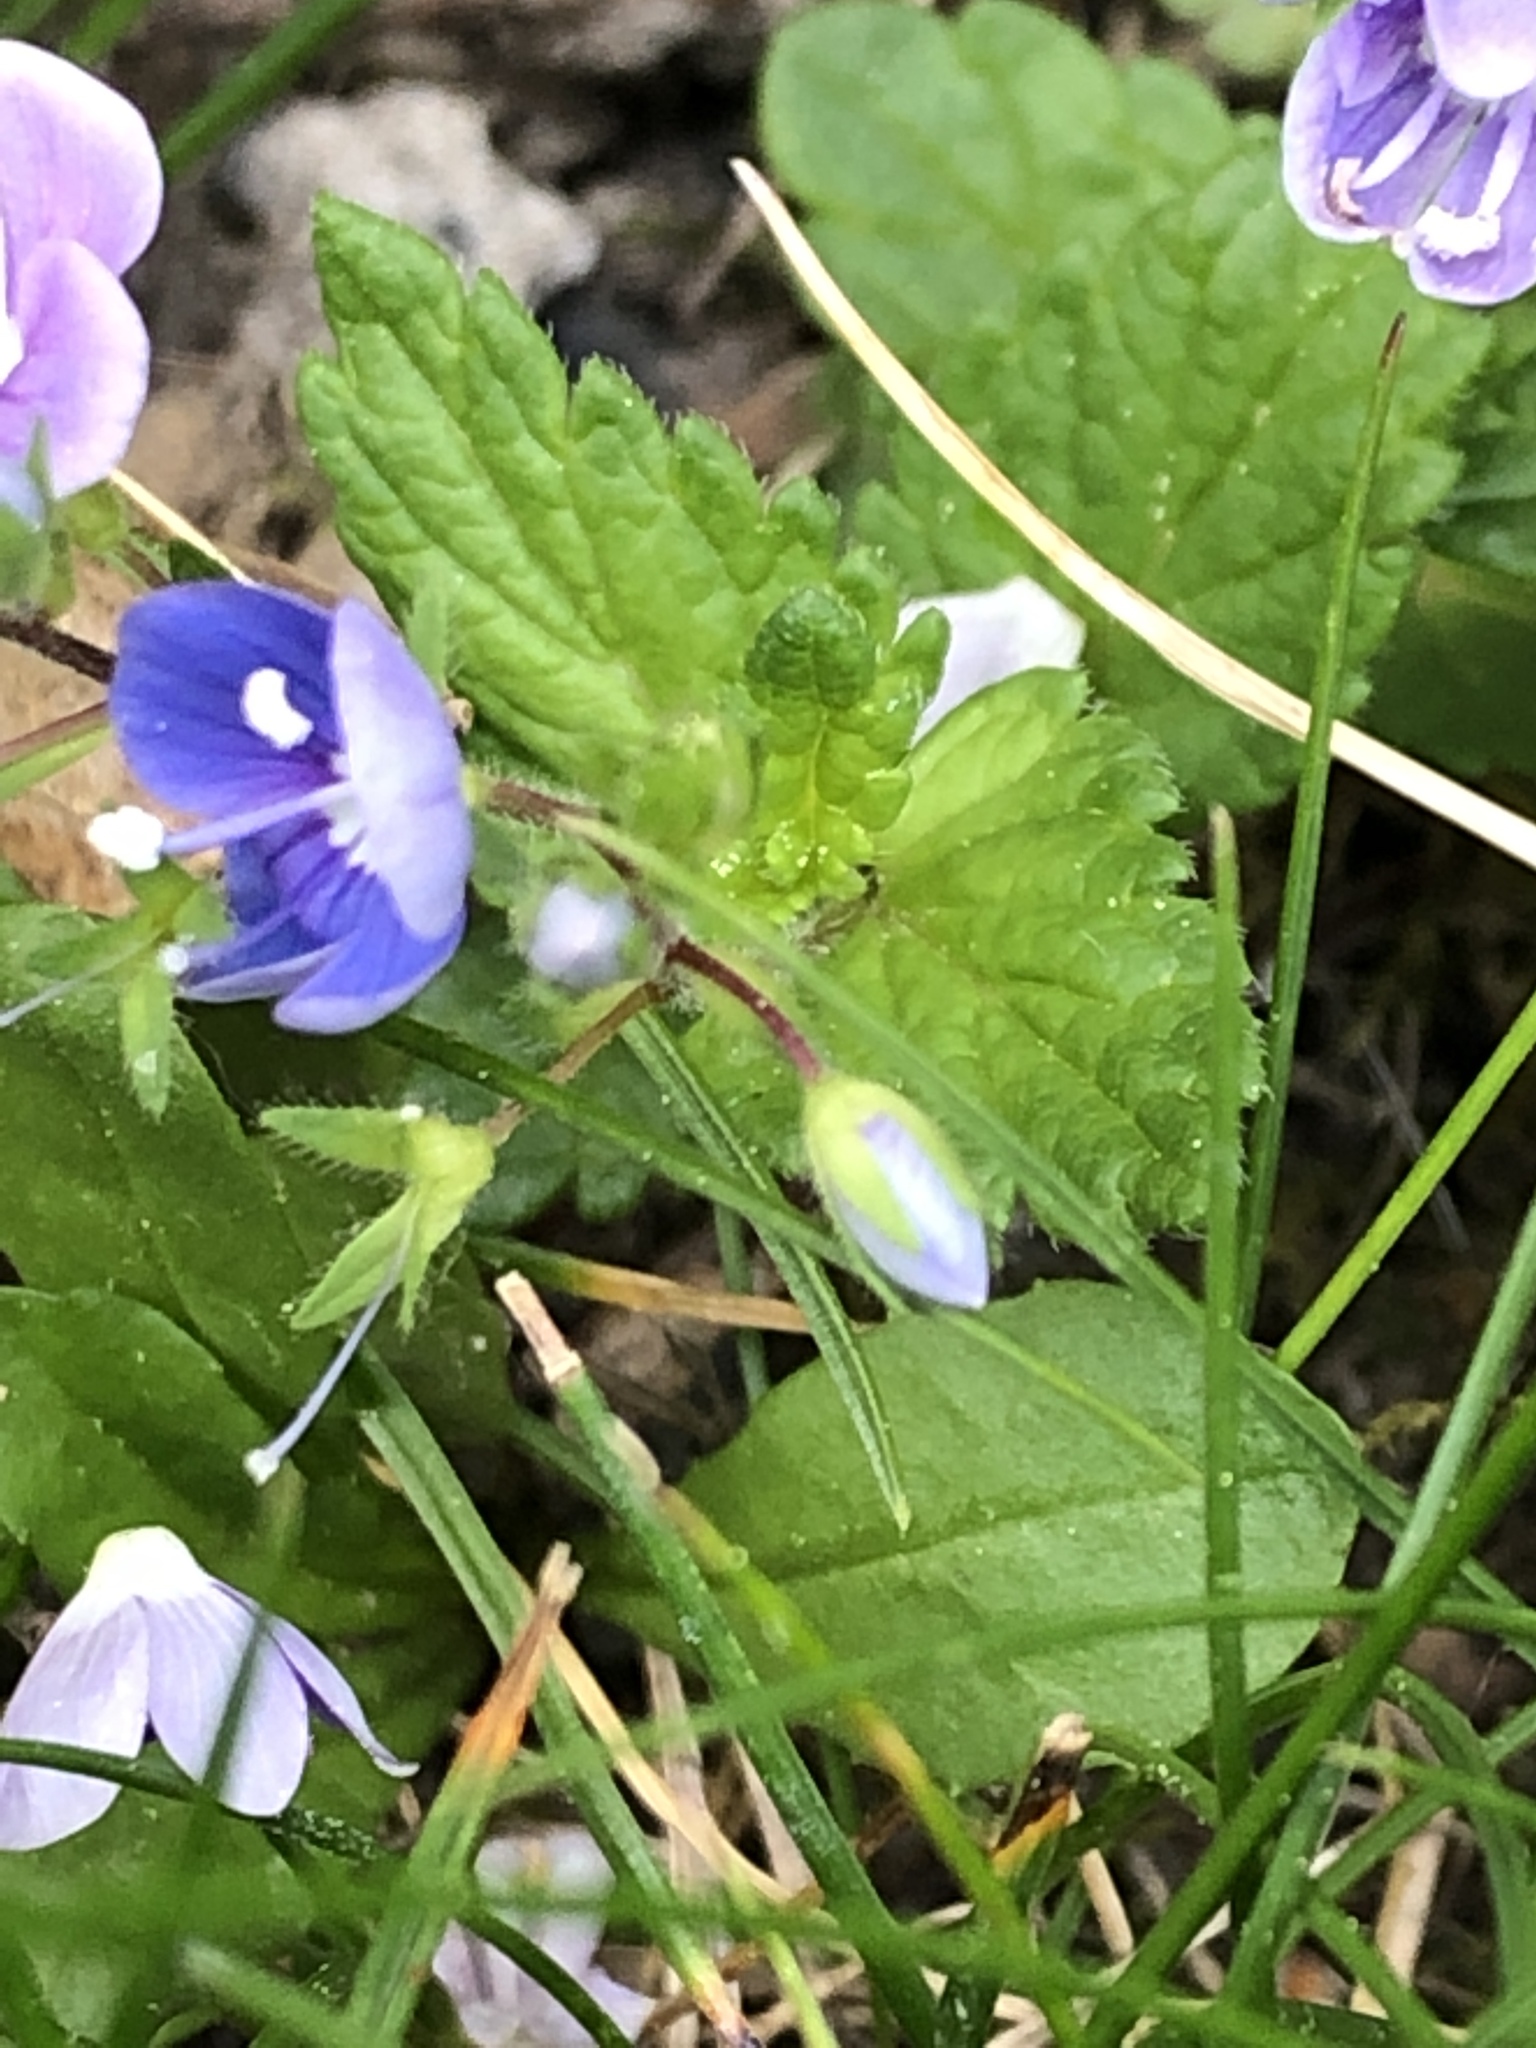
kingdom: Plantae
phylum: Tracheophyta
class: Magnoliopsida
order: Lamiales
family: Plantaginaceae
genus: Veronica
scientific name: Veronica chamaedrys
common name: Germander speedwell
